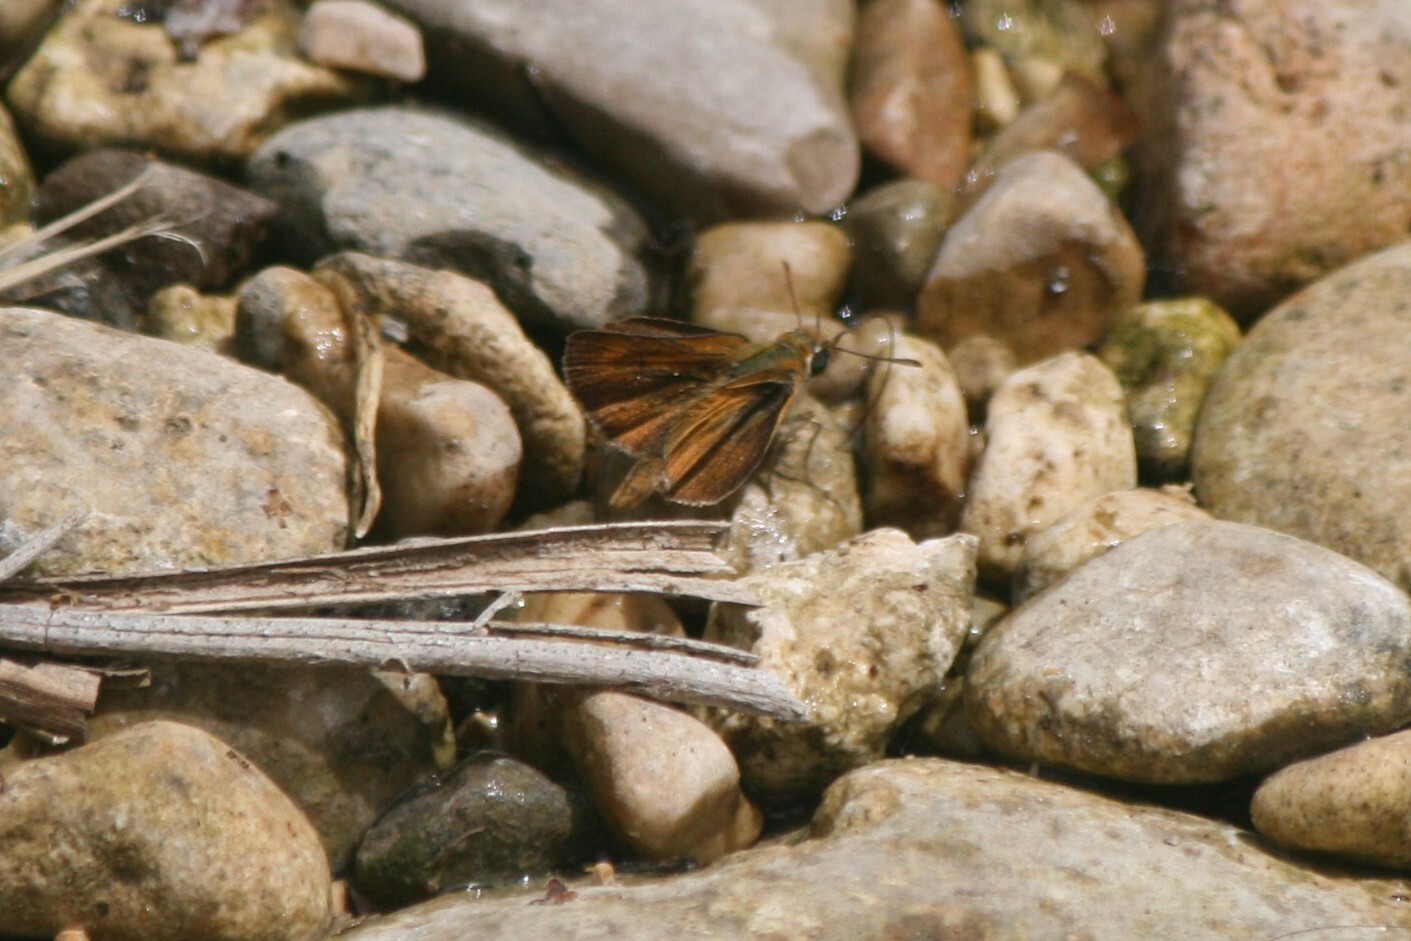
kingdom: Animalia
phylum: Arthropoda
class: Insecta
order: Lepidoptera
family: Hesperiidae
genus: Thymelicus
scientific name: Thymelicus acteon
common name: Lulworth skipper
